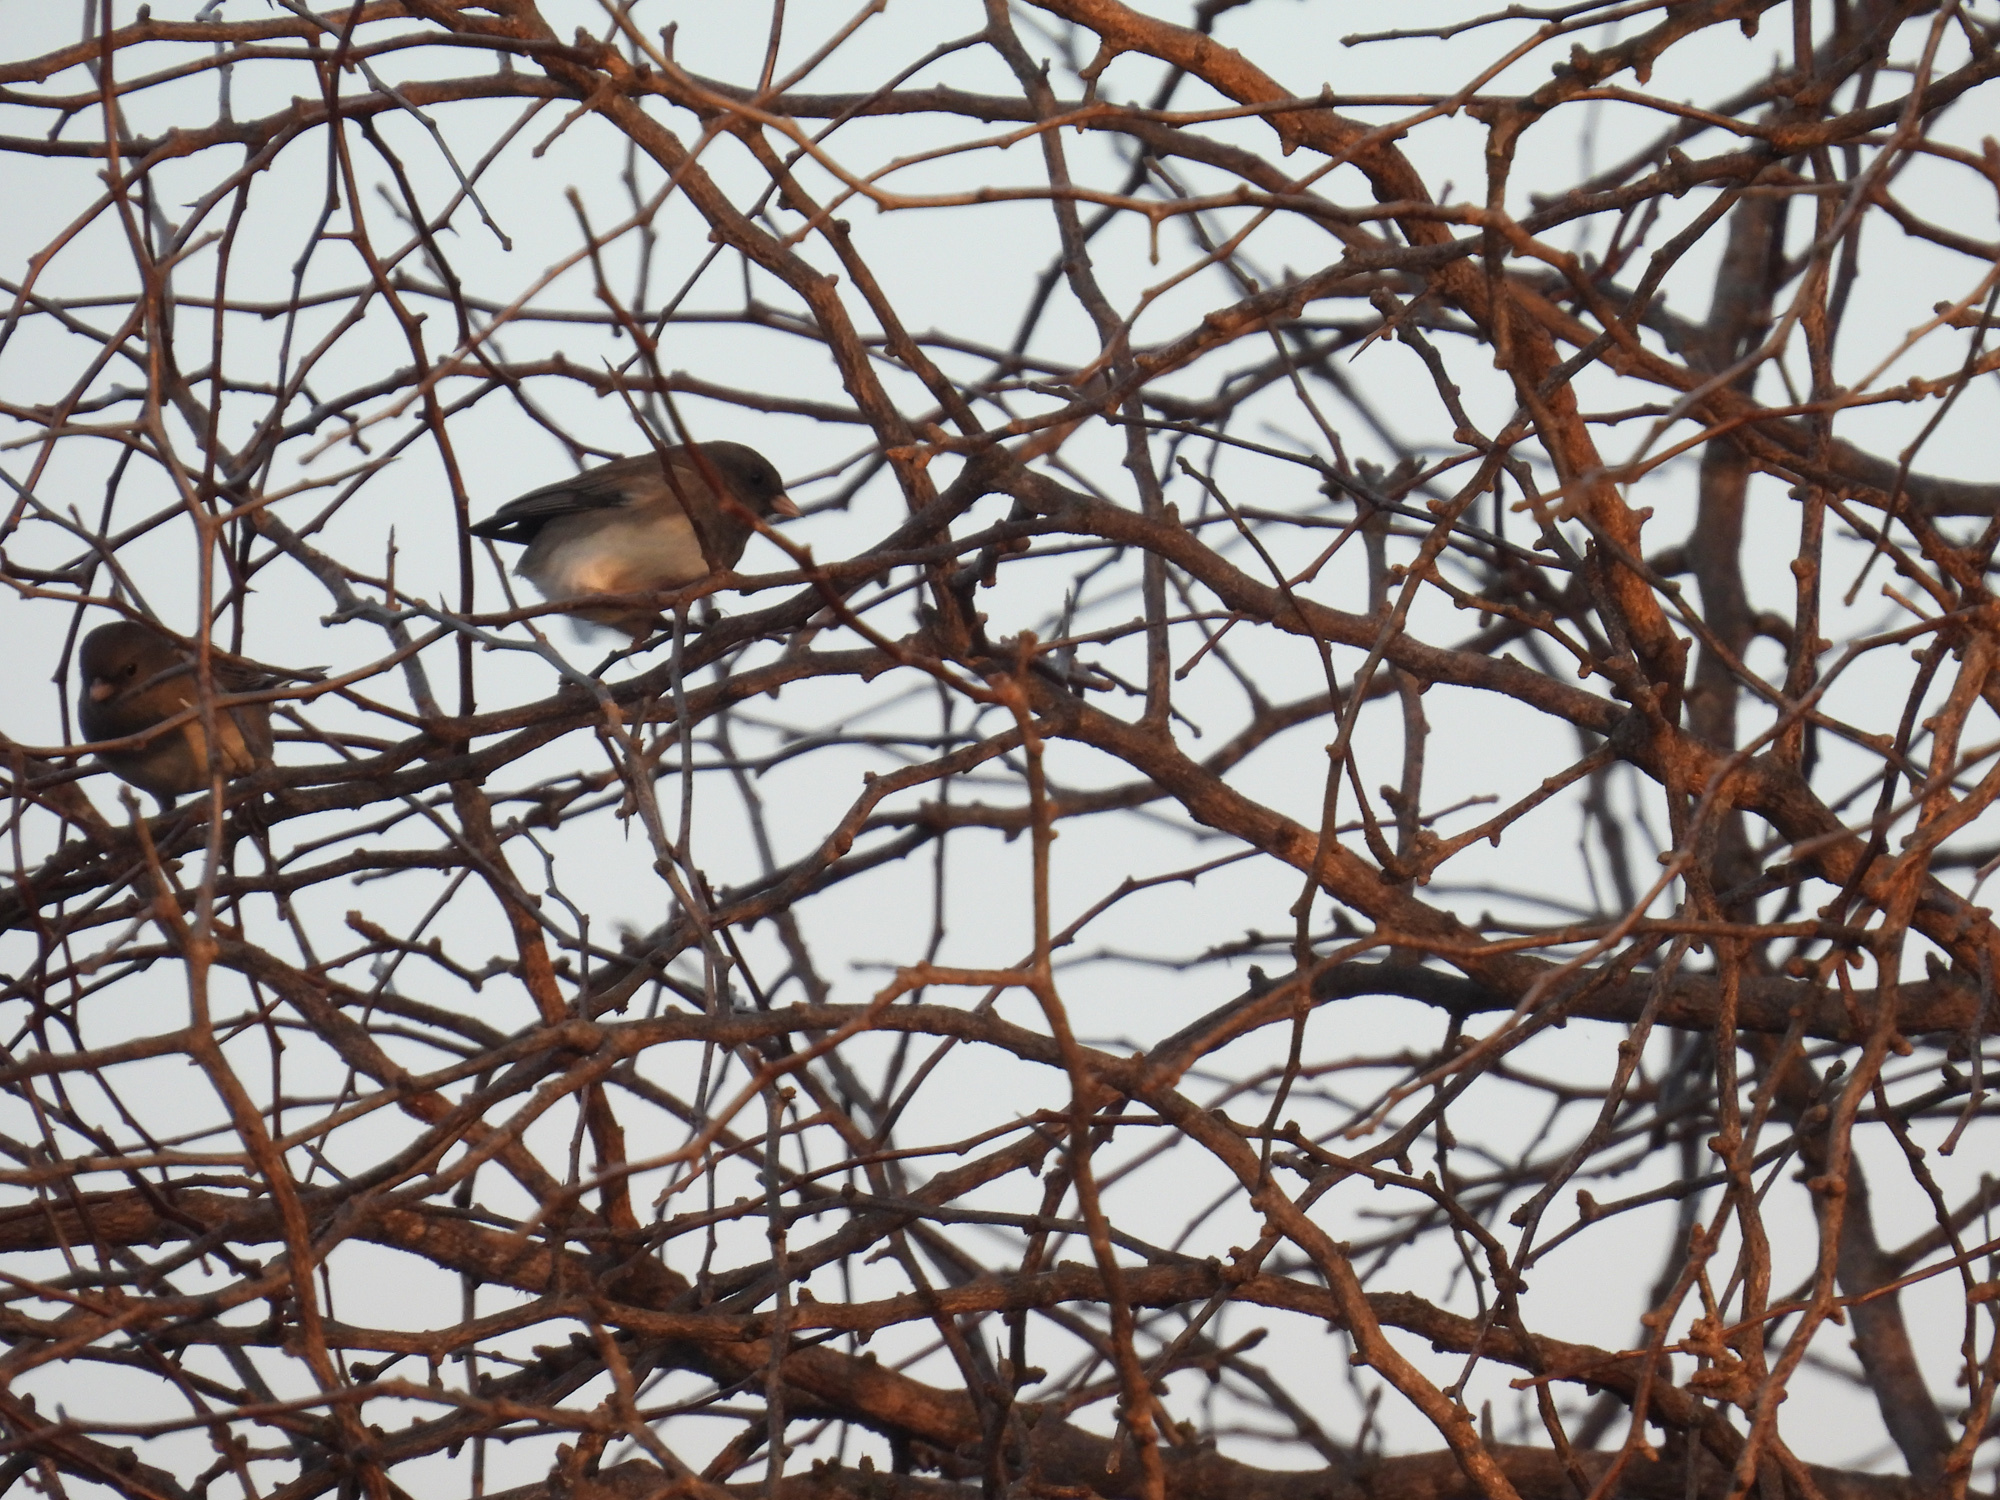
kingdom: Animalia
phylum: Chordata
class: Aves
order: Passeriformes
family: Passerellidae
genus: Junco
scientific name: Junco hyemalis
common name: Dark-eyed junco
